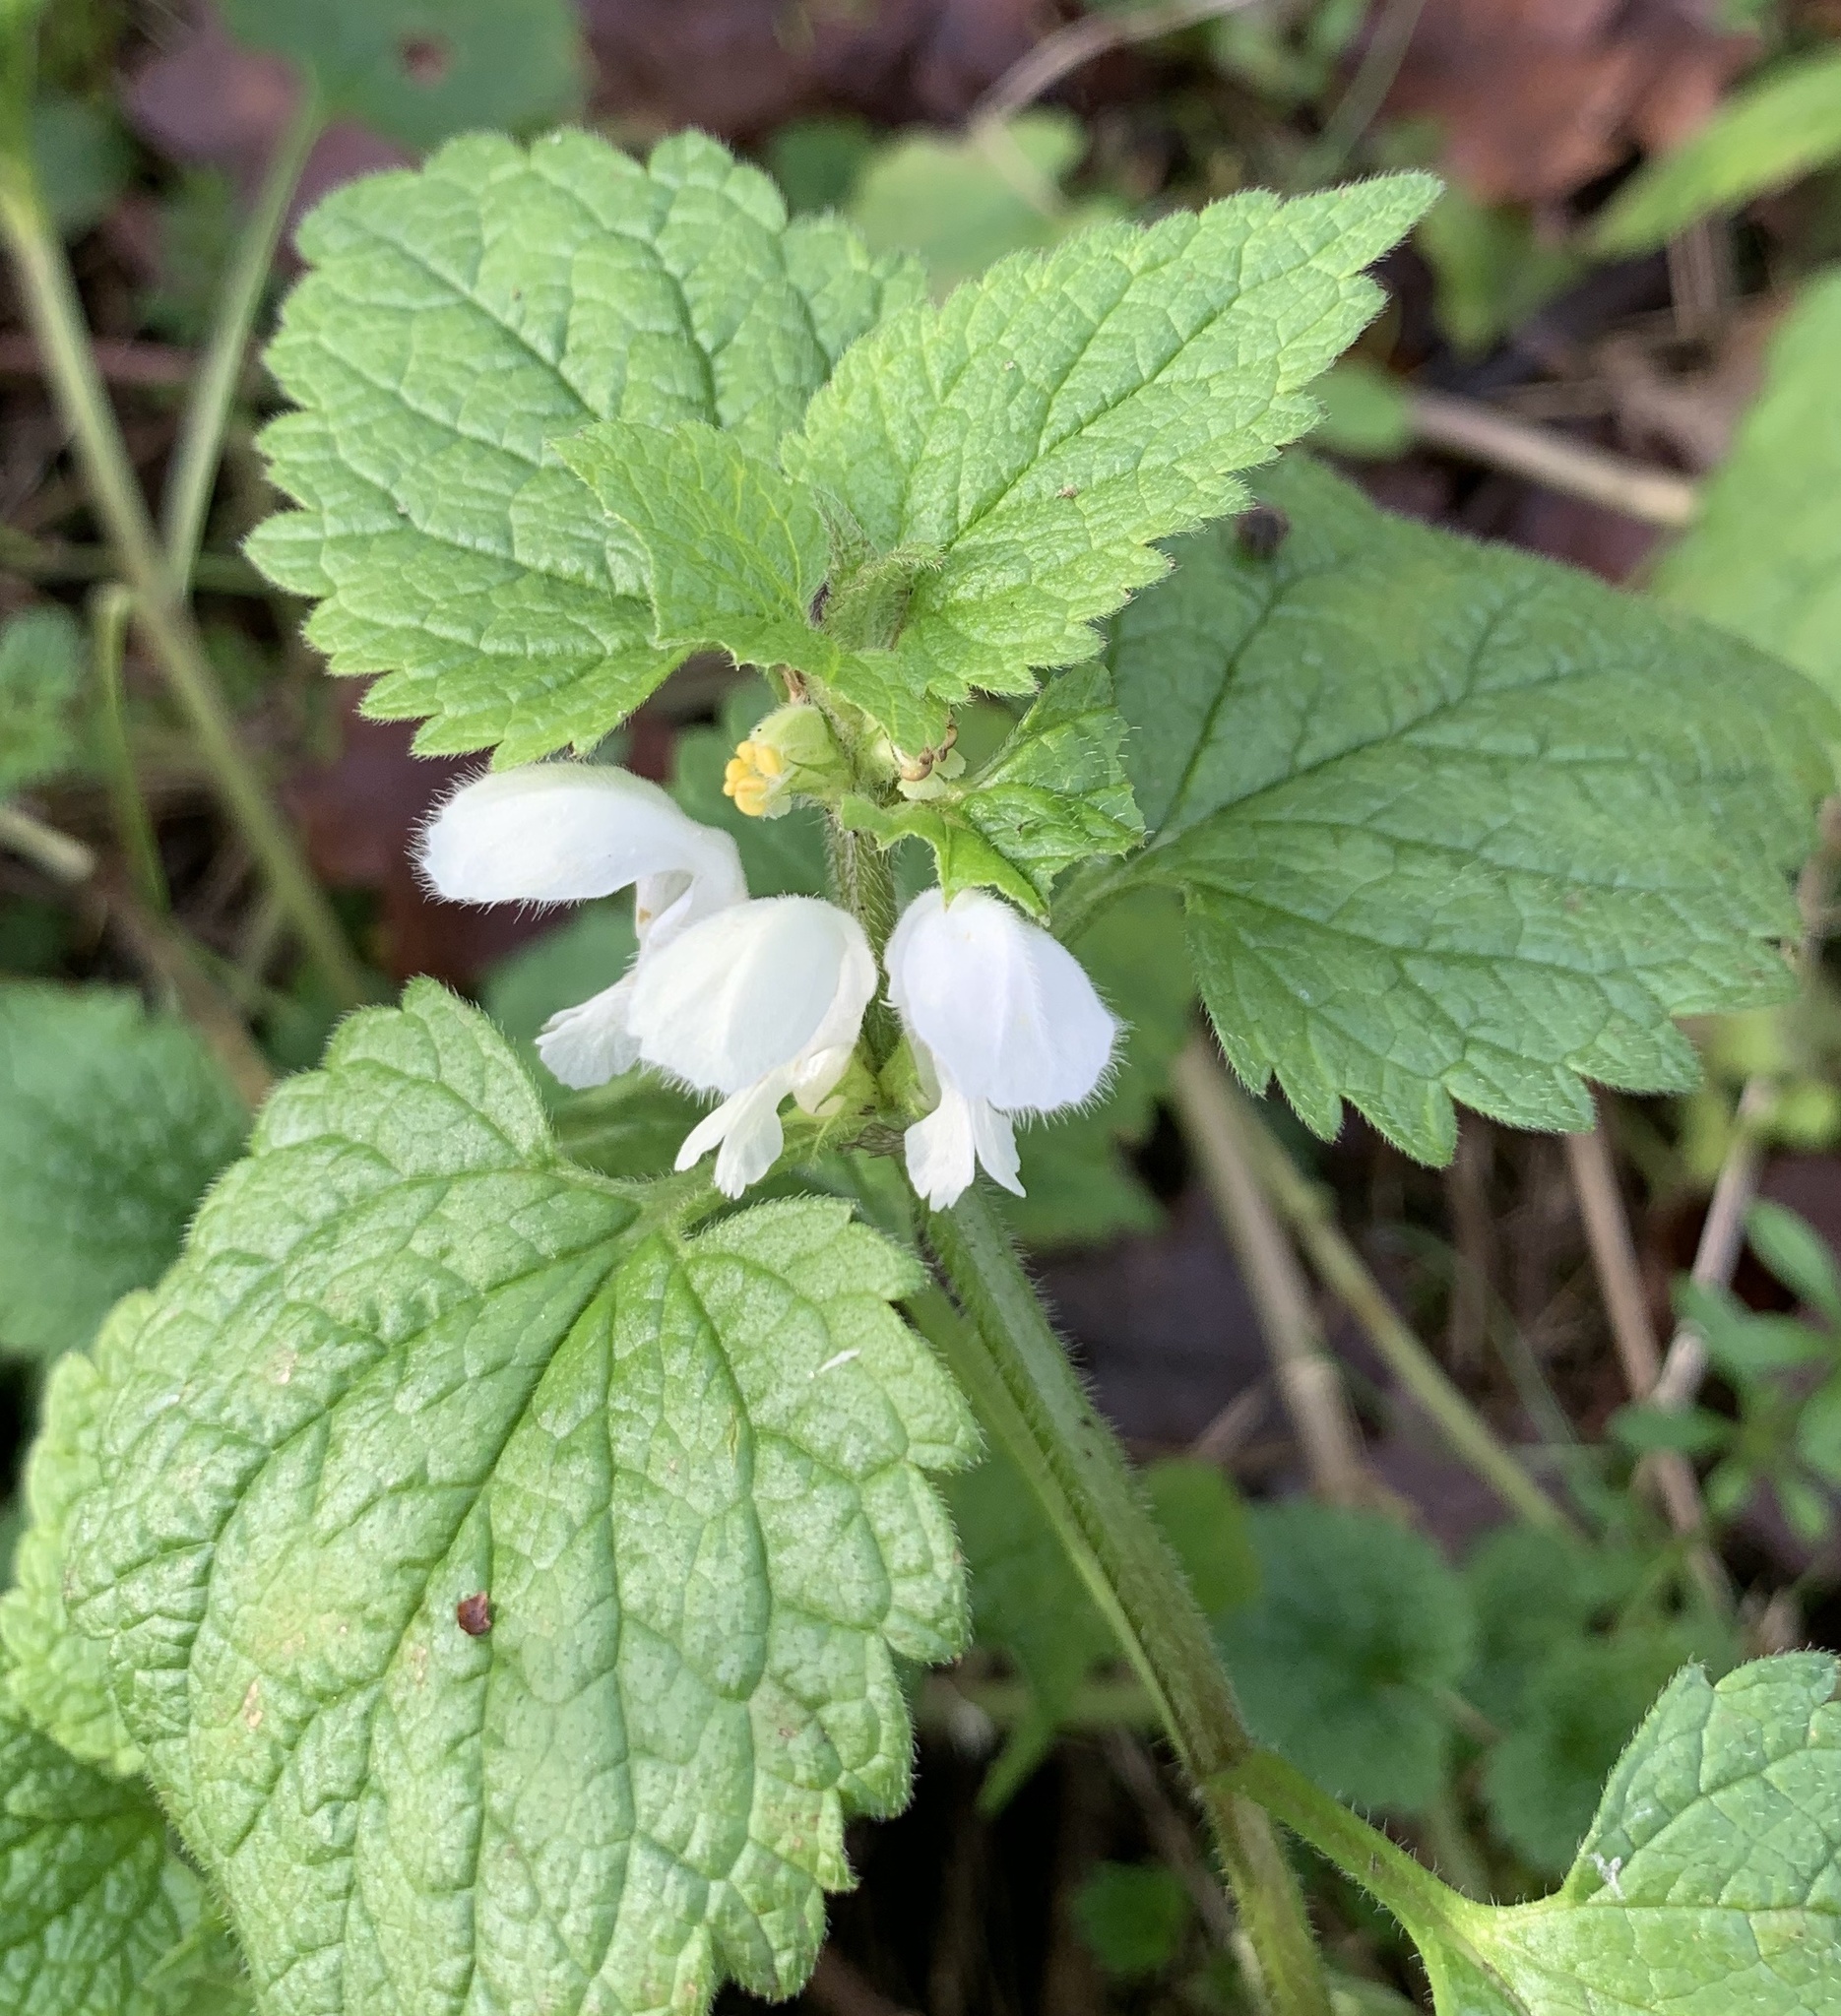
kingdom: Plantae
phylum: Tracheophyta
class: Magnoliopsida
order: Lamiales
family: Lamiaceae
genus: Lamium
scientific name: Lamium album
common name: White dead-nettle
